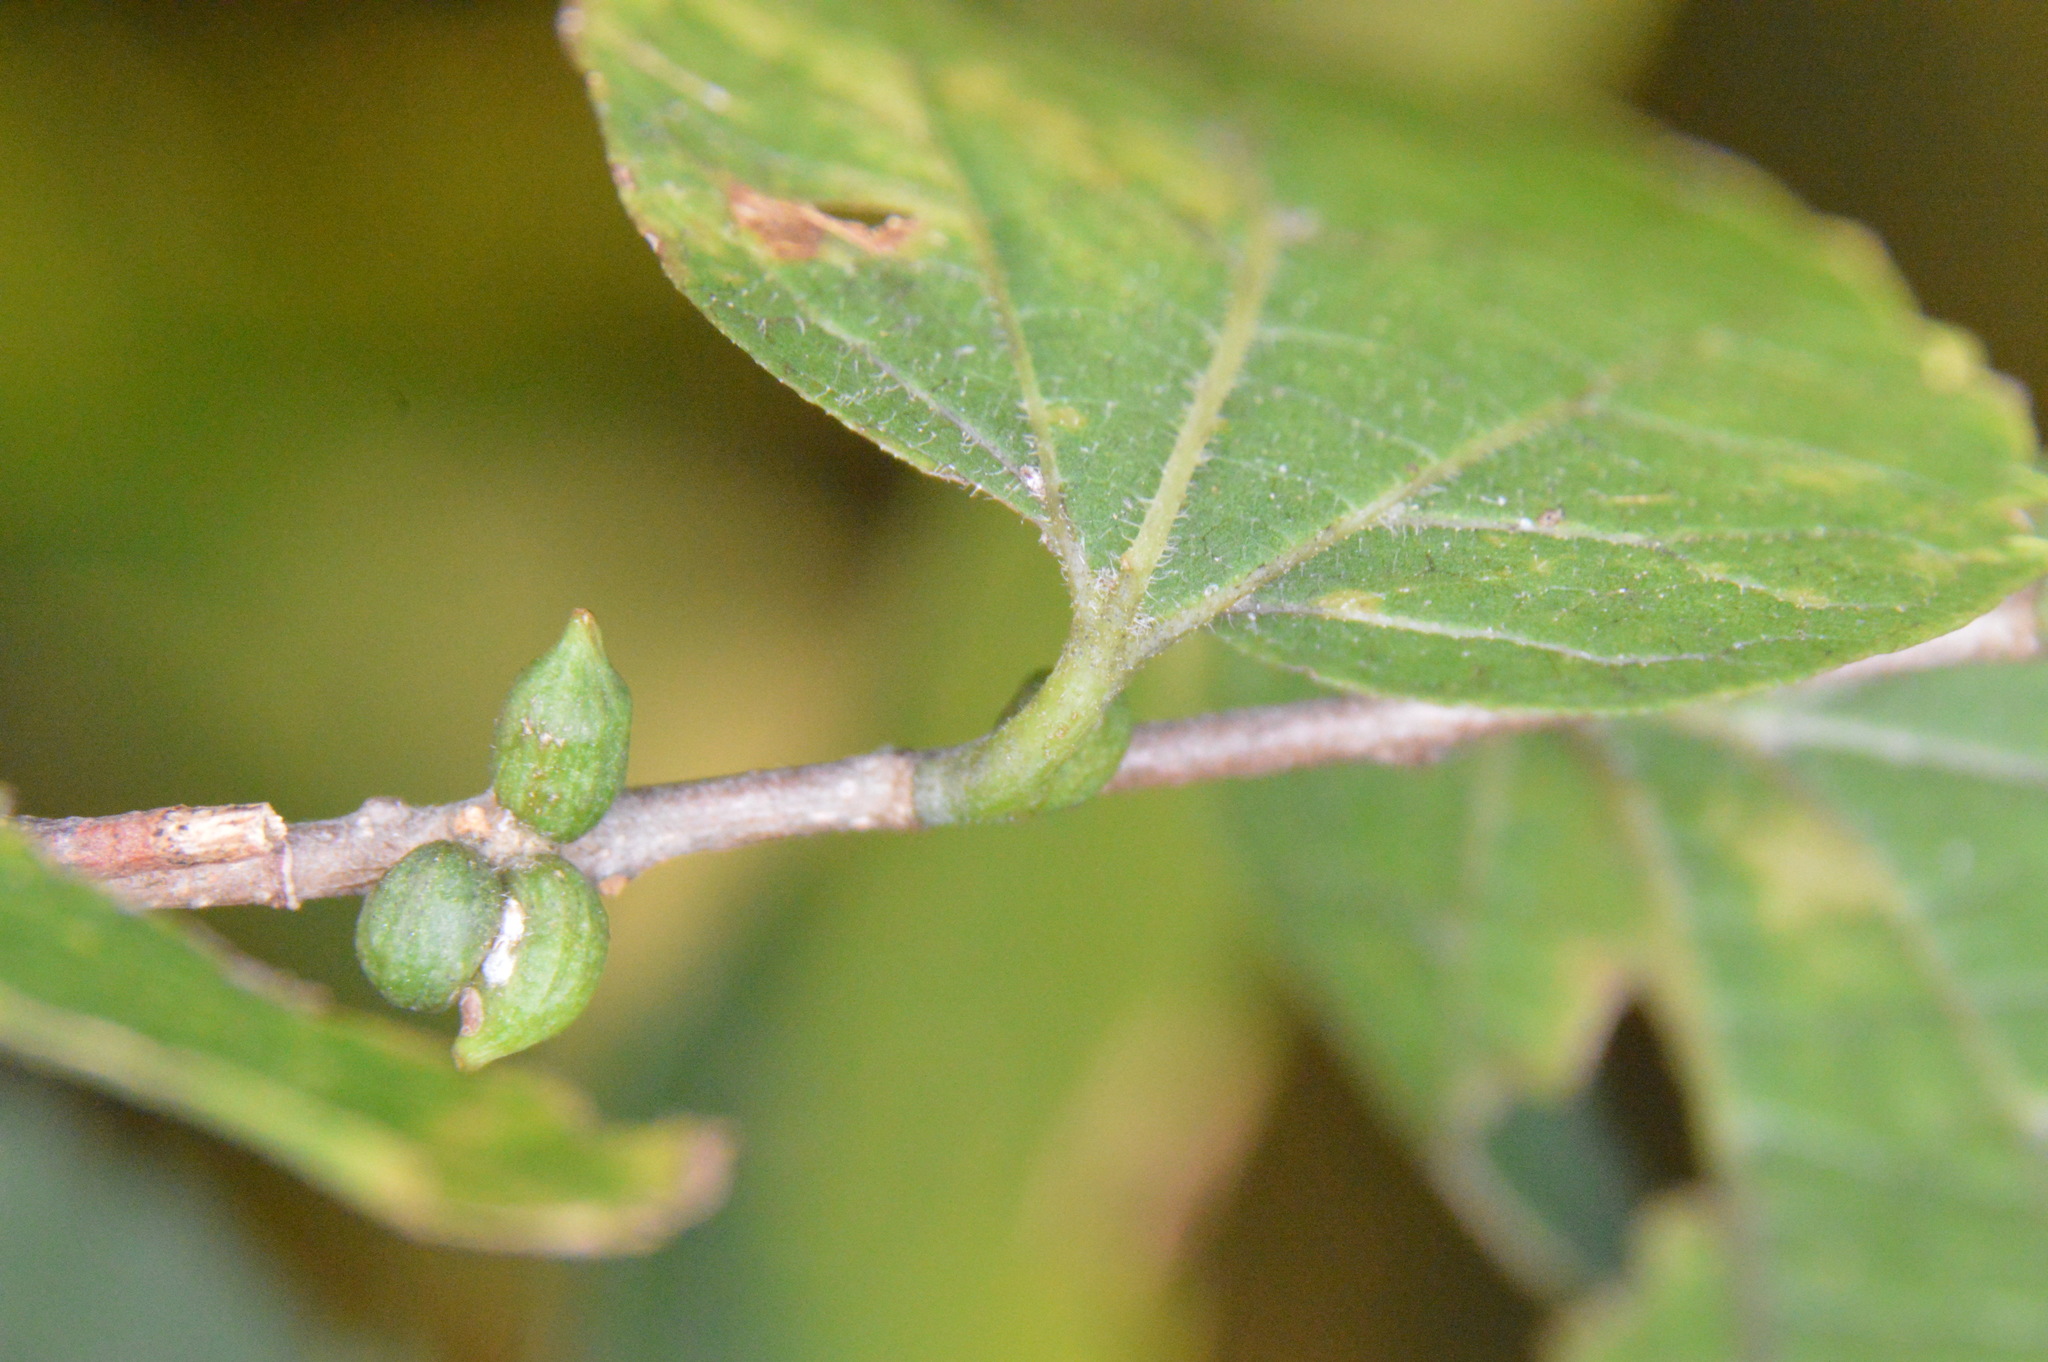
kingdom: Animalia
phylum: Arthropoda
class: Insecta
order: Diptera
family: Cecidomyiidae
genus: Celticecis
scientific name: Celticecis ramicola
